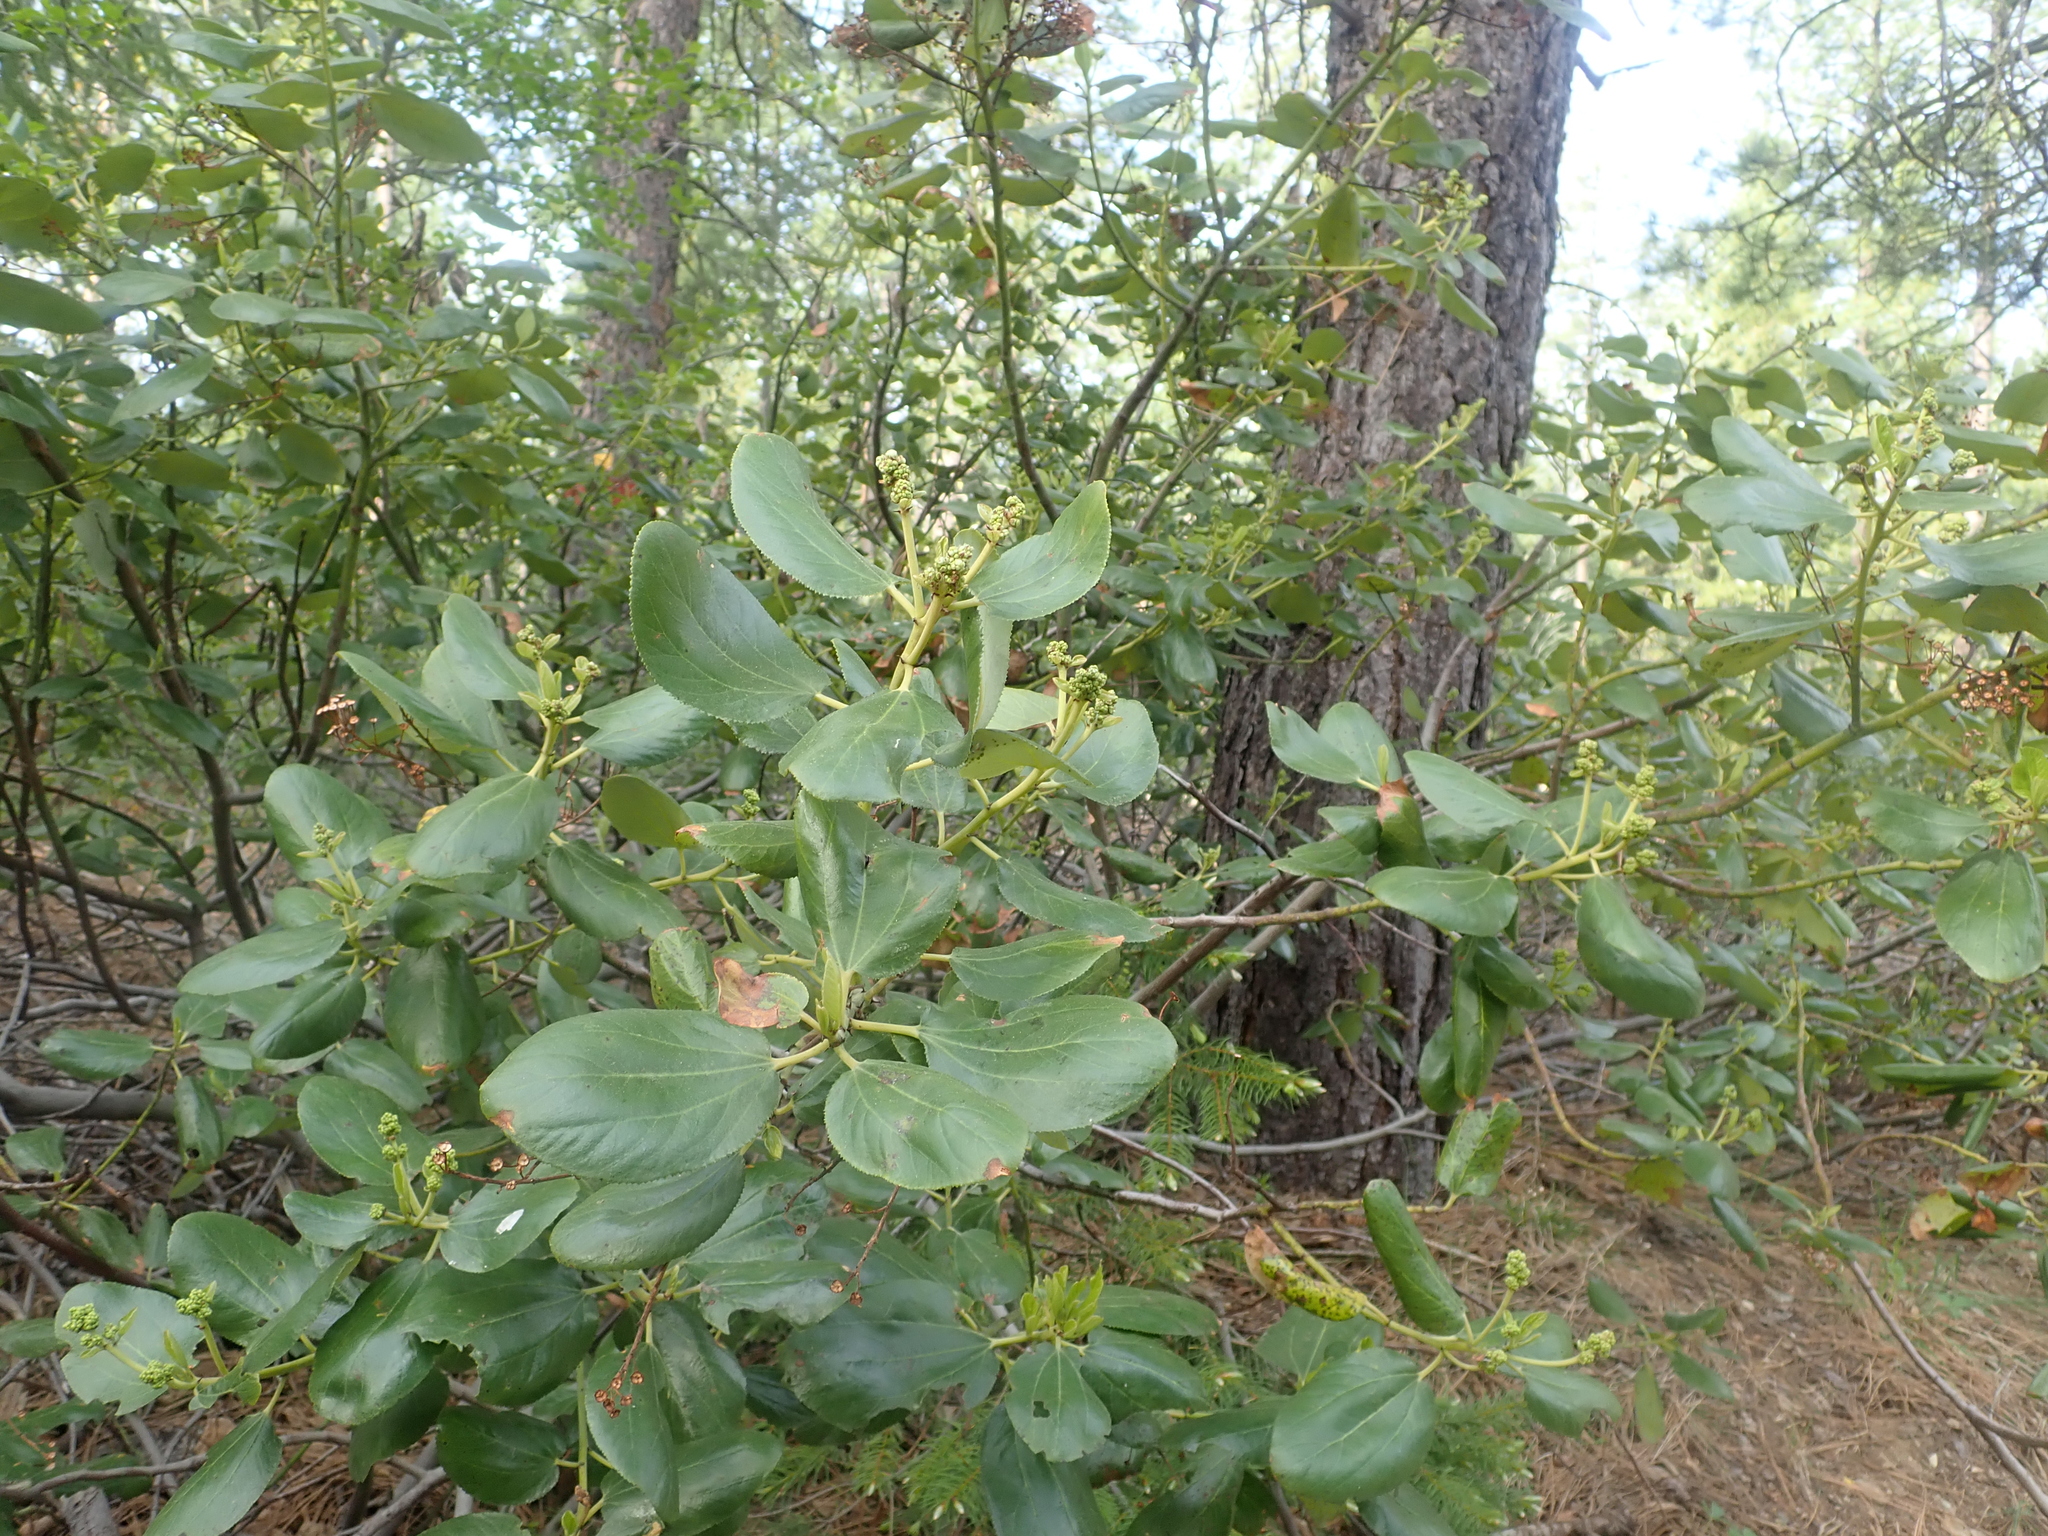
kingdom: Plantae
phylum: Tracheophyta
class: Magnoliopsida
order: Rosales
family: Rhamnaceae
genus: Ceanothus
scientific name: Ceanothus velutinus
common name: Snowbrush
